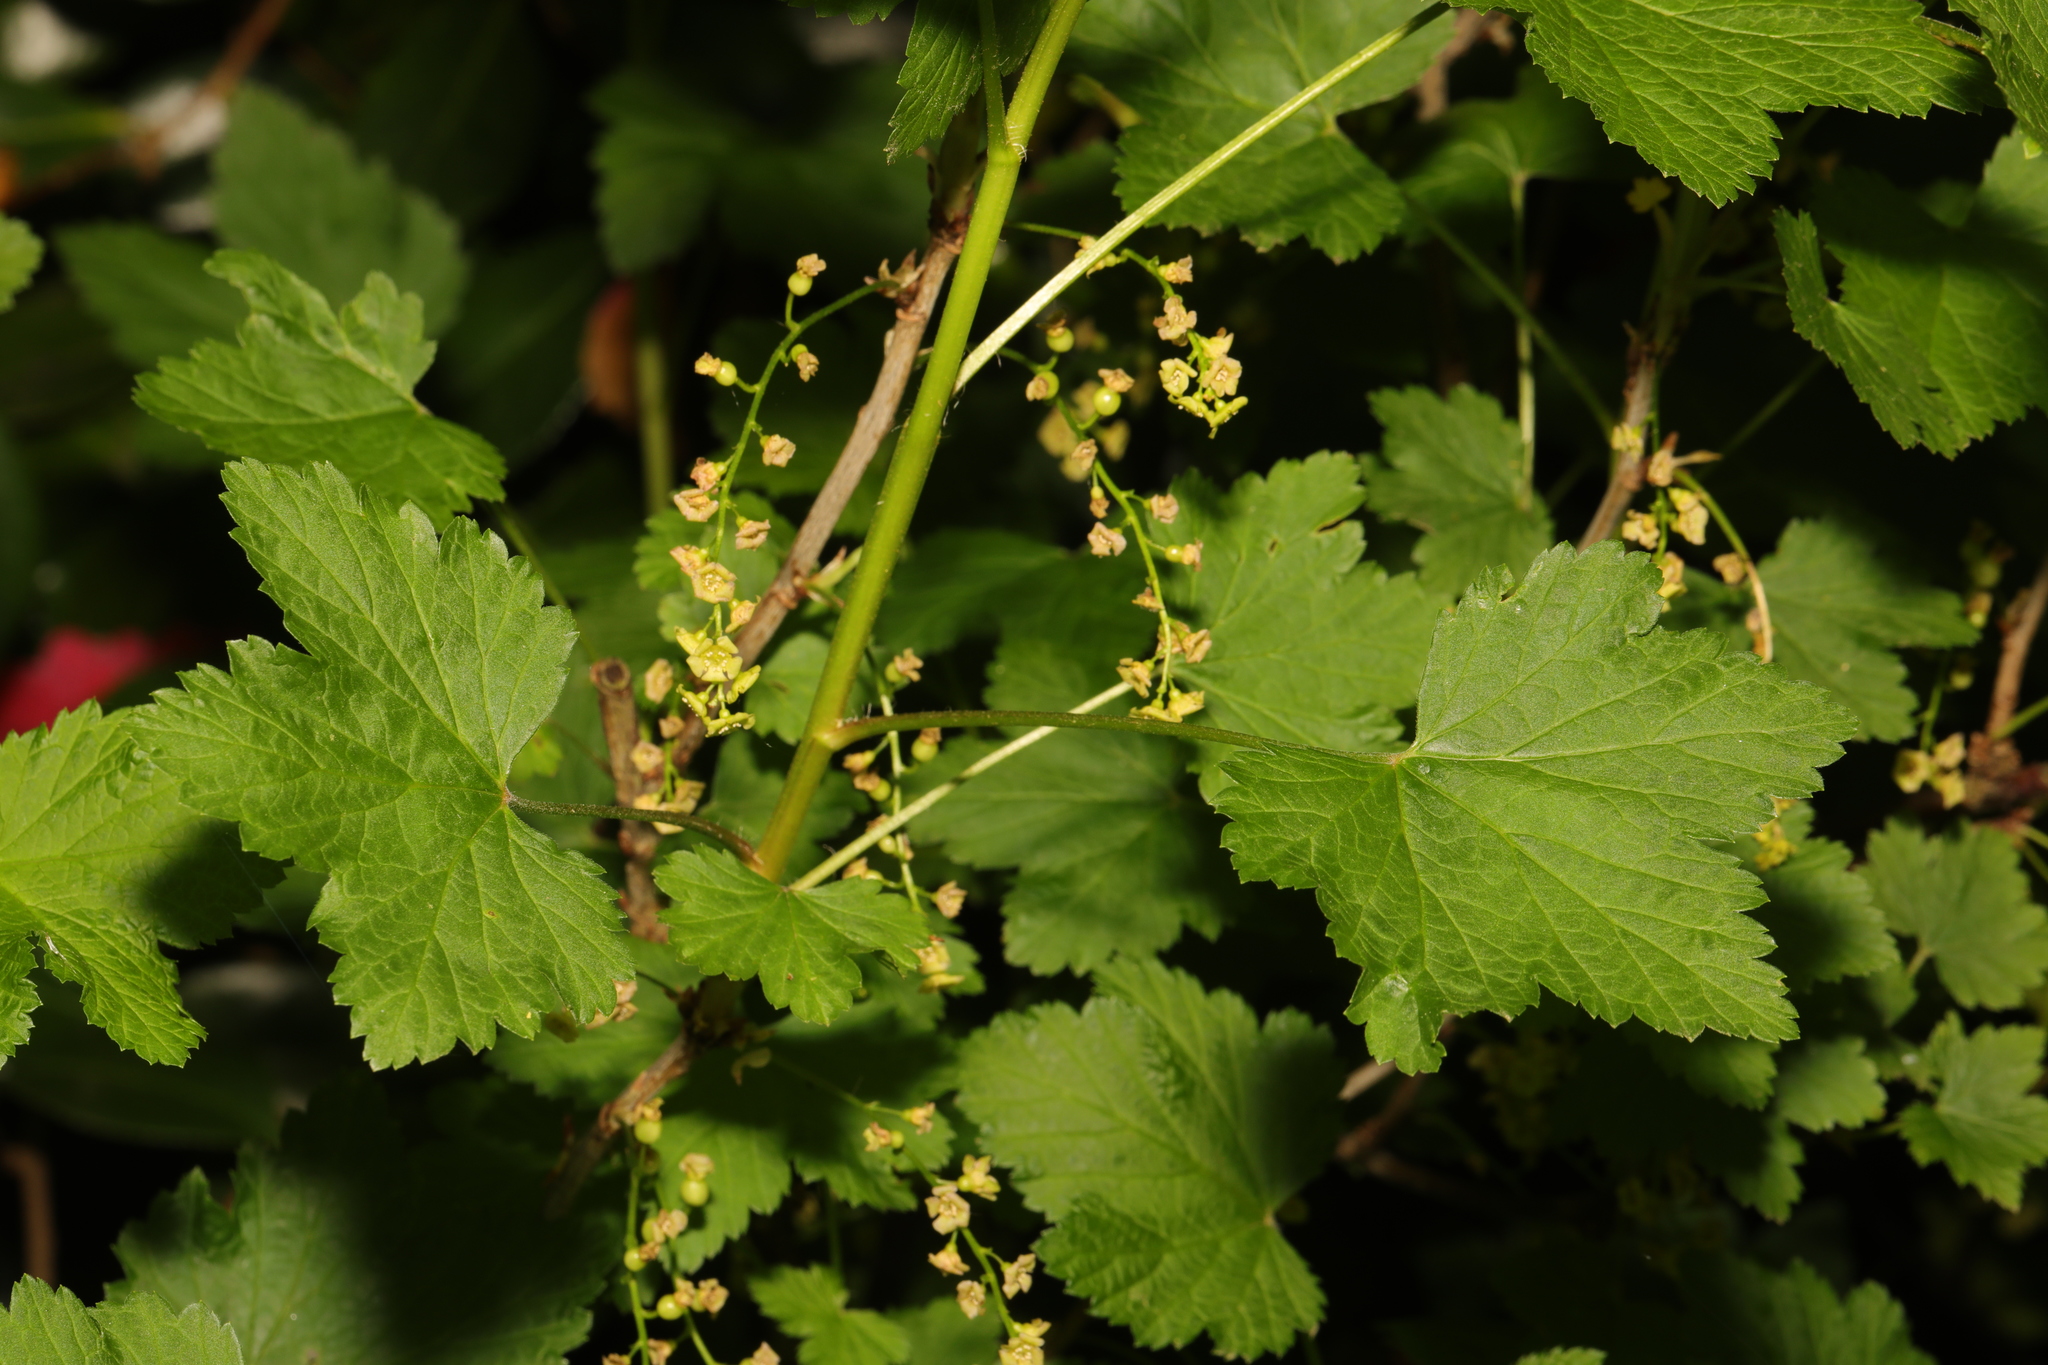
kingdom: Plantae
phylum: Tracheophyta
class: Magnoliopsida
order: Saxifragales
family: Grossulariaceae
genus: Ribes
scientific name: Ribes rubrum
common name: Red currant
